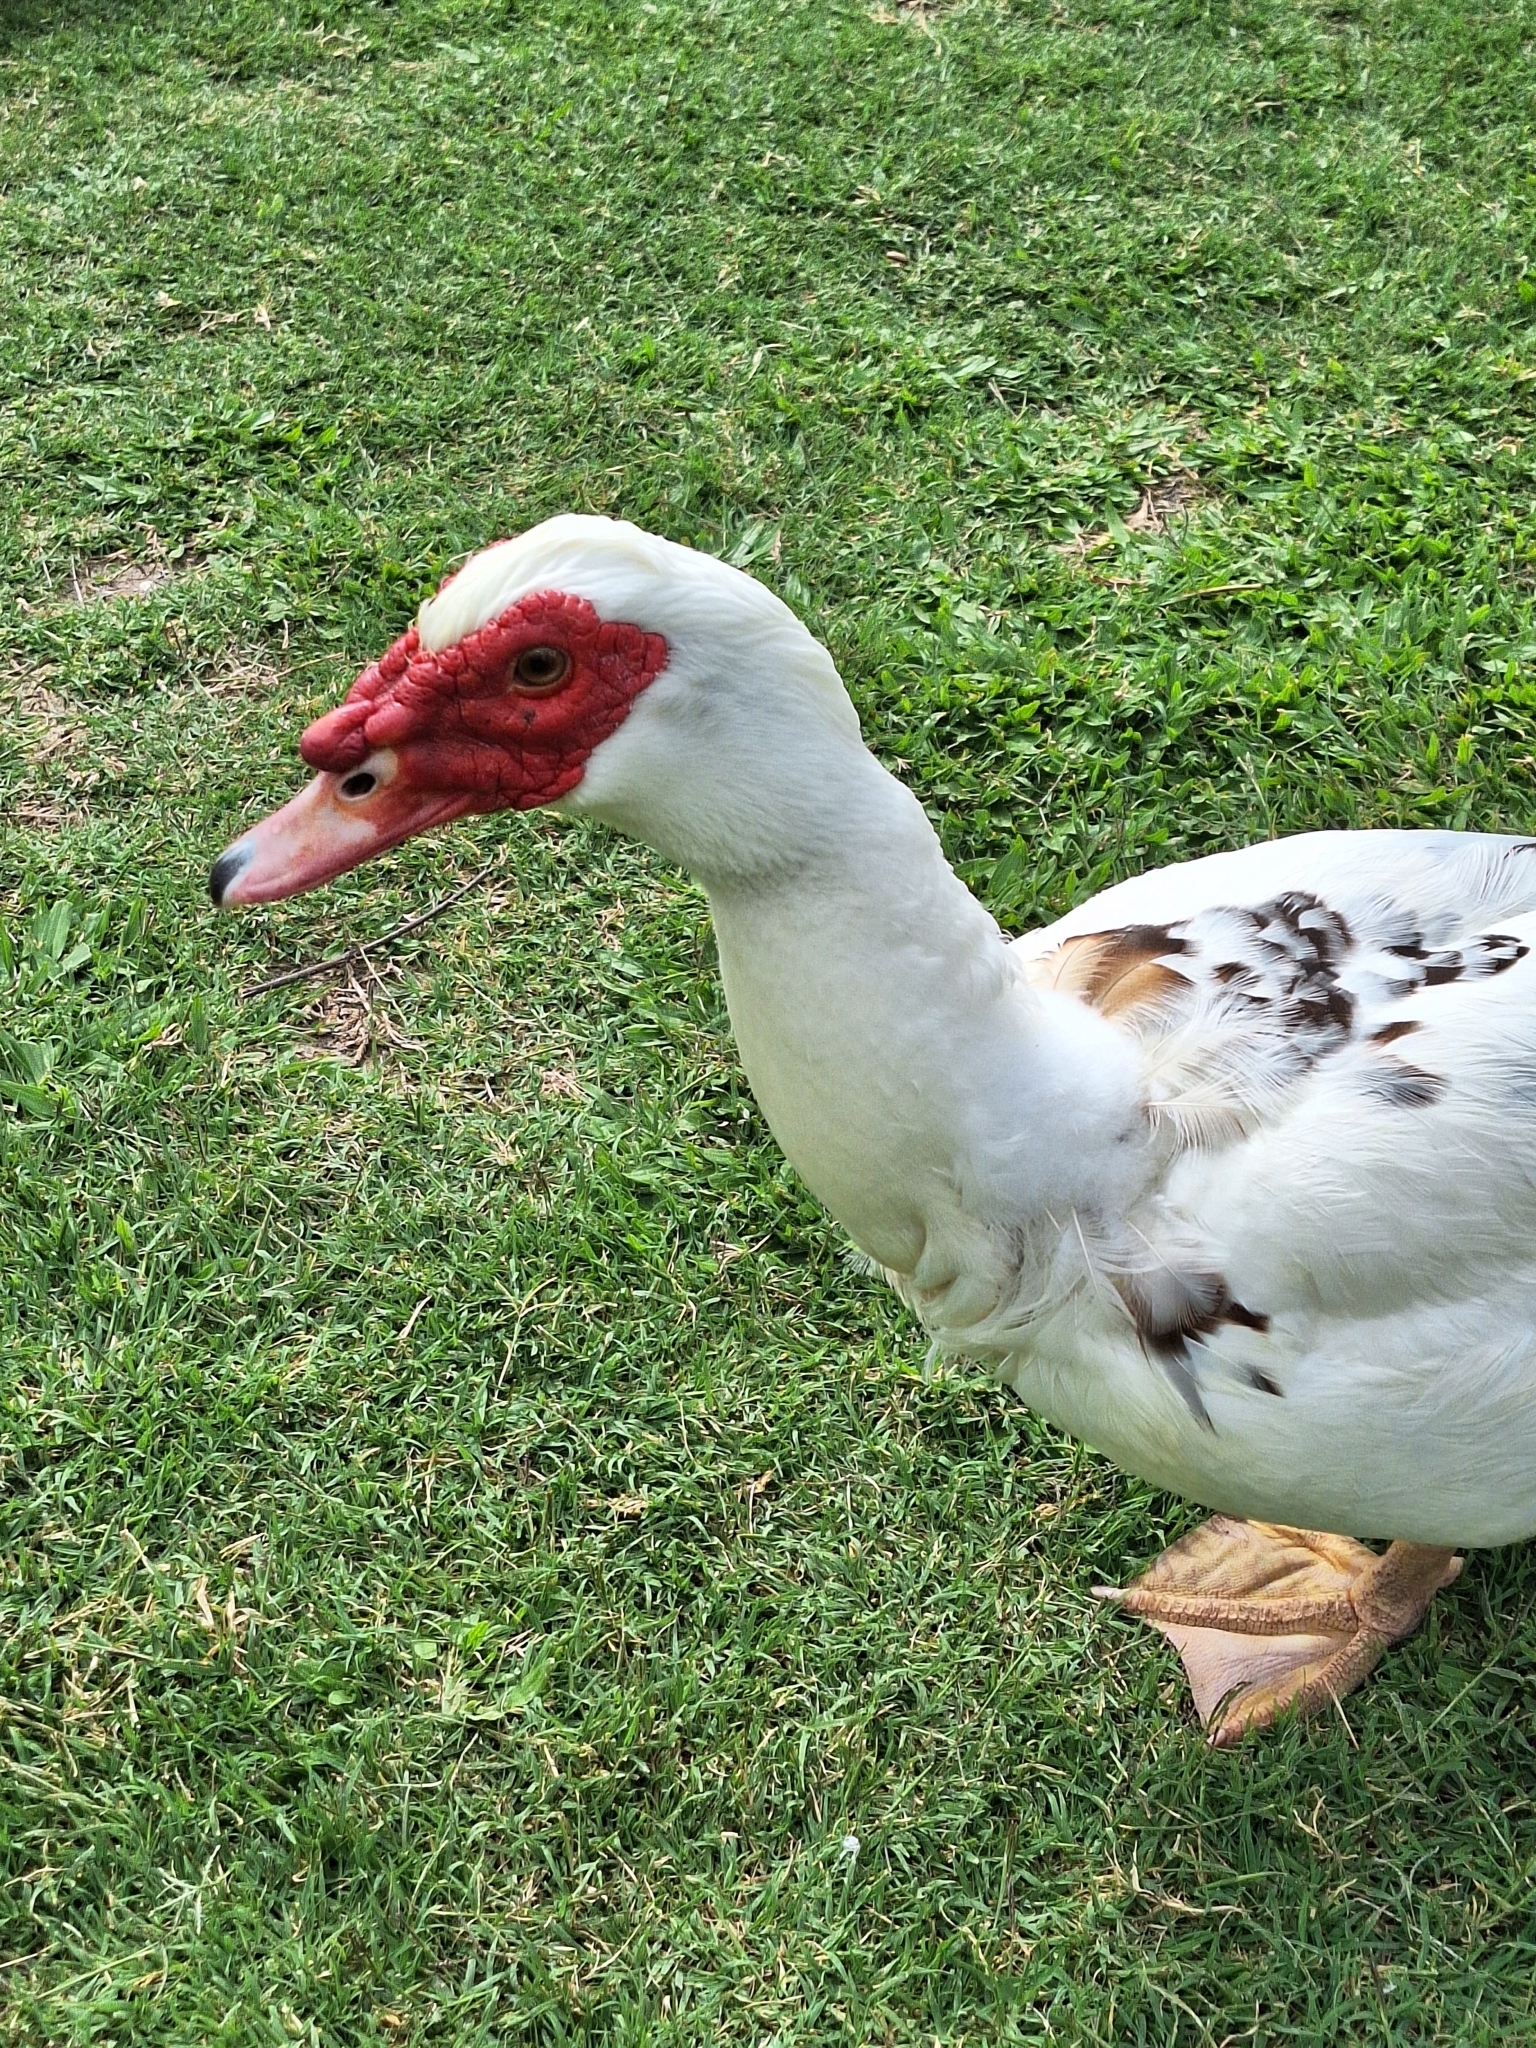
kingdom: Animalia
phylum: Chordata
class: Aves
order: Anseriformes
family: Anatidae
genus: Cairina
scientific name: Cairina moschata
